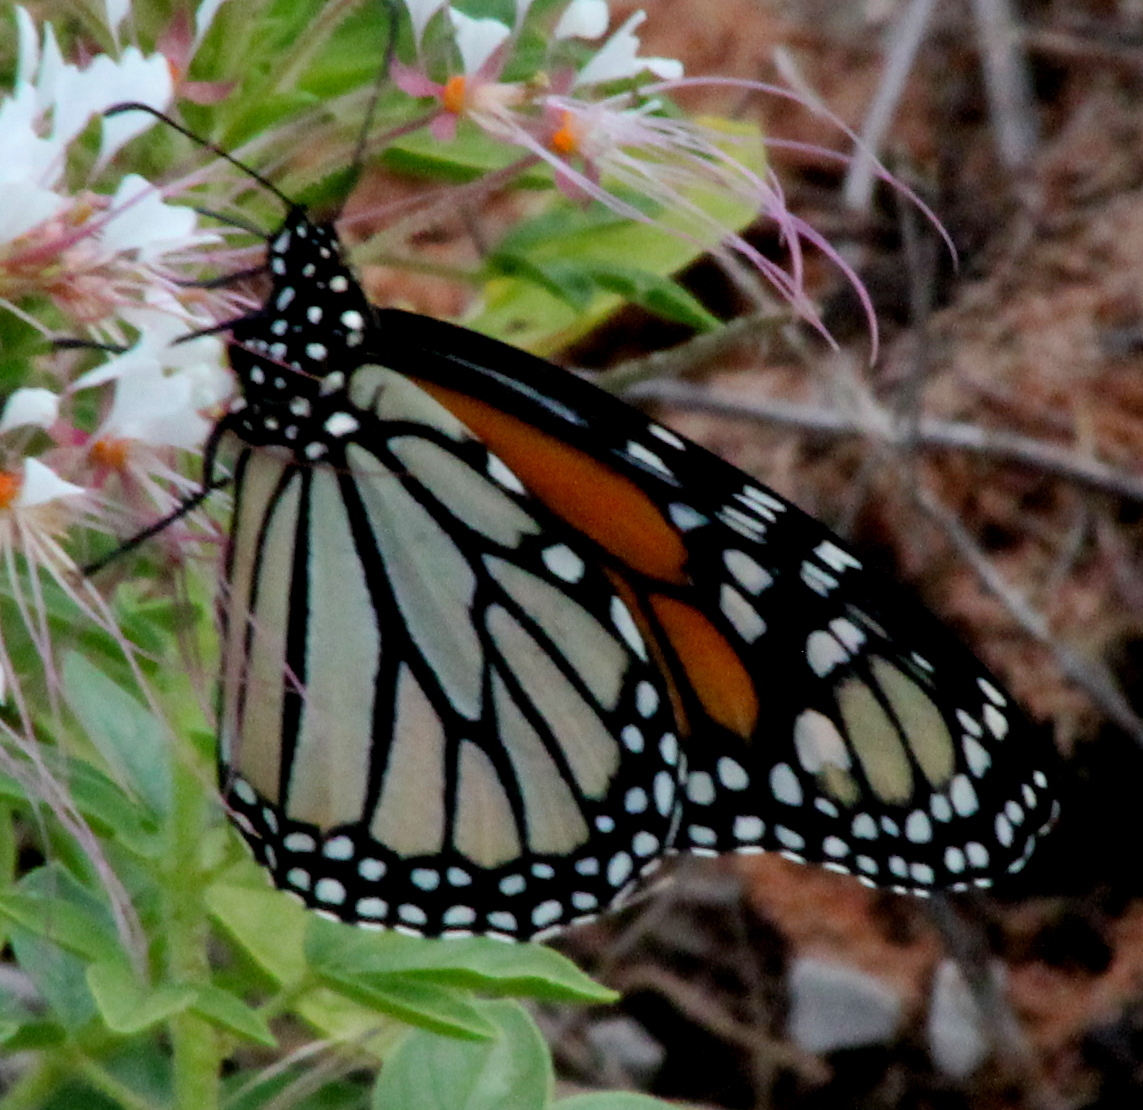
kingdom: Animalia
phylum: Arthropoda
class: Insecta
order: Lepidoptera
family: Nymphalidae
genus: Danaus
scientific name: Danaus plexippus
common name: Monarch
